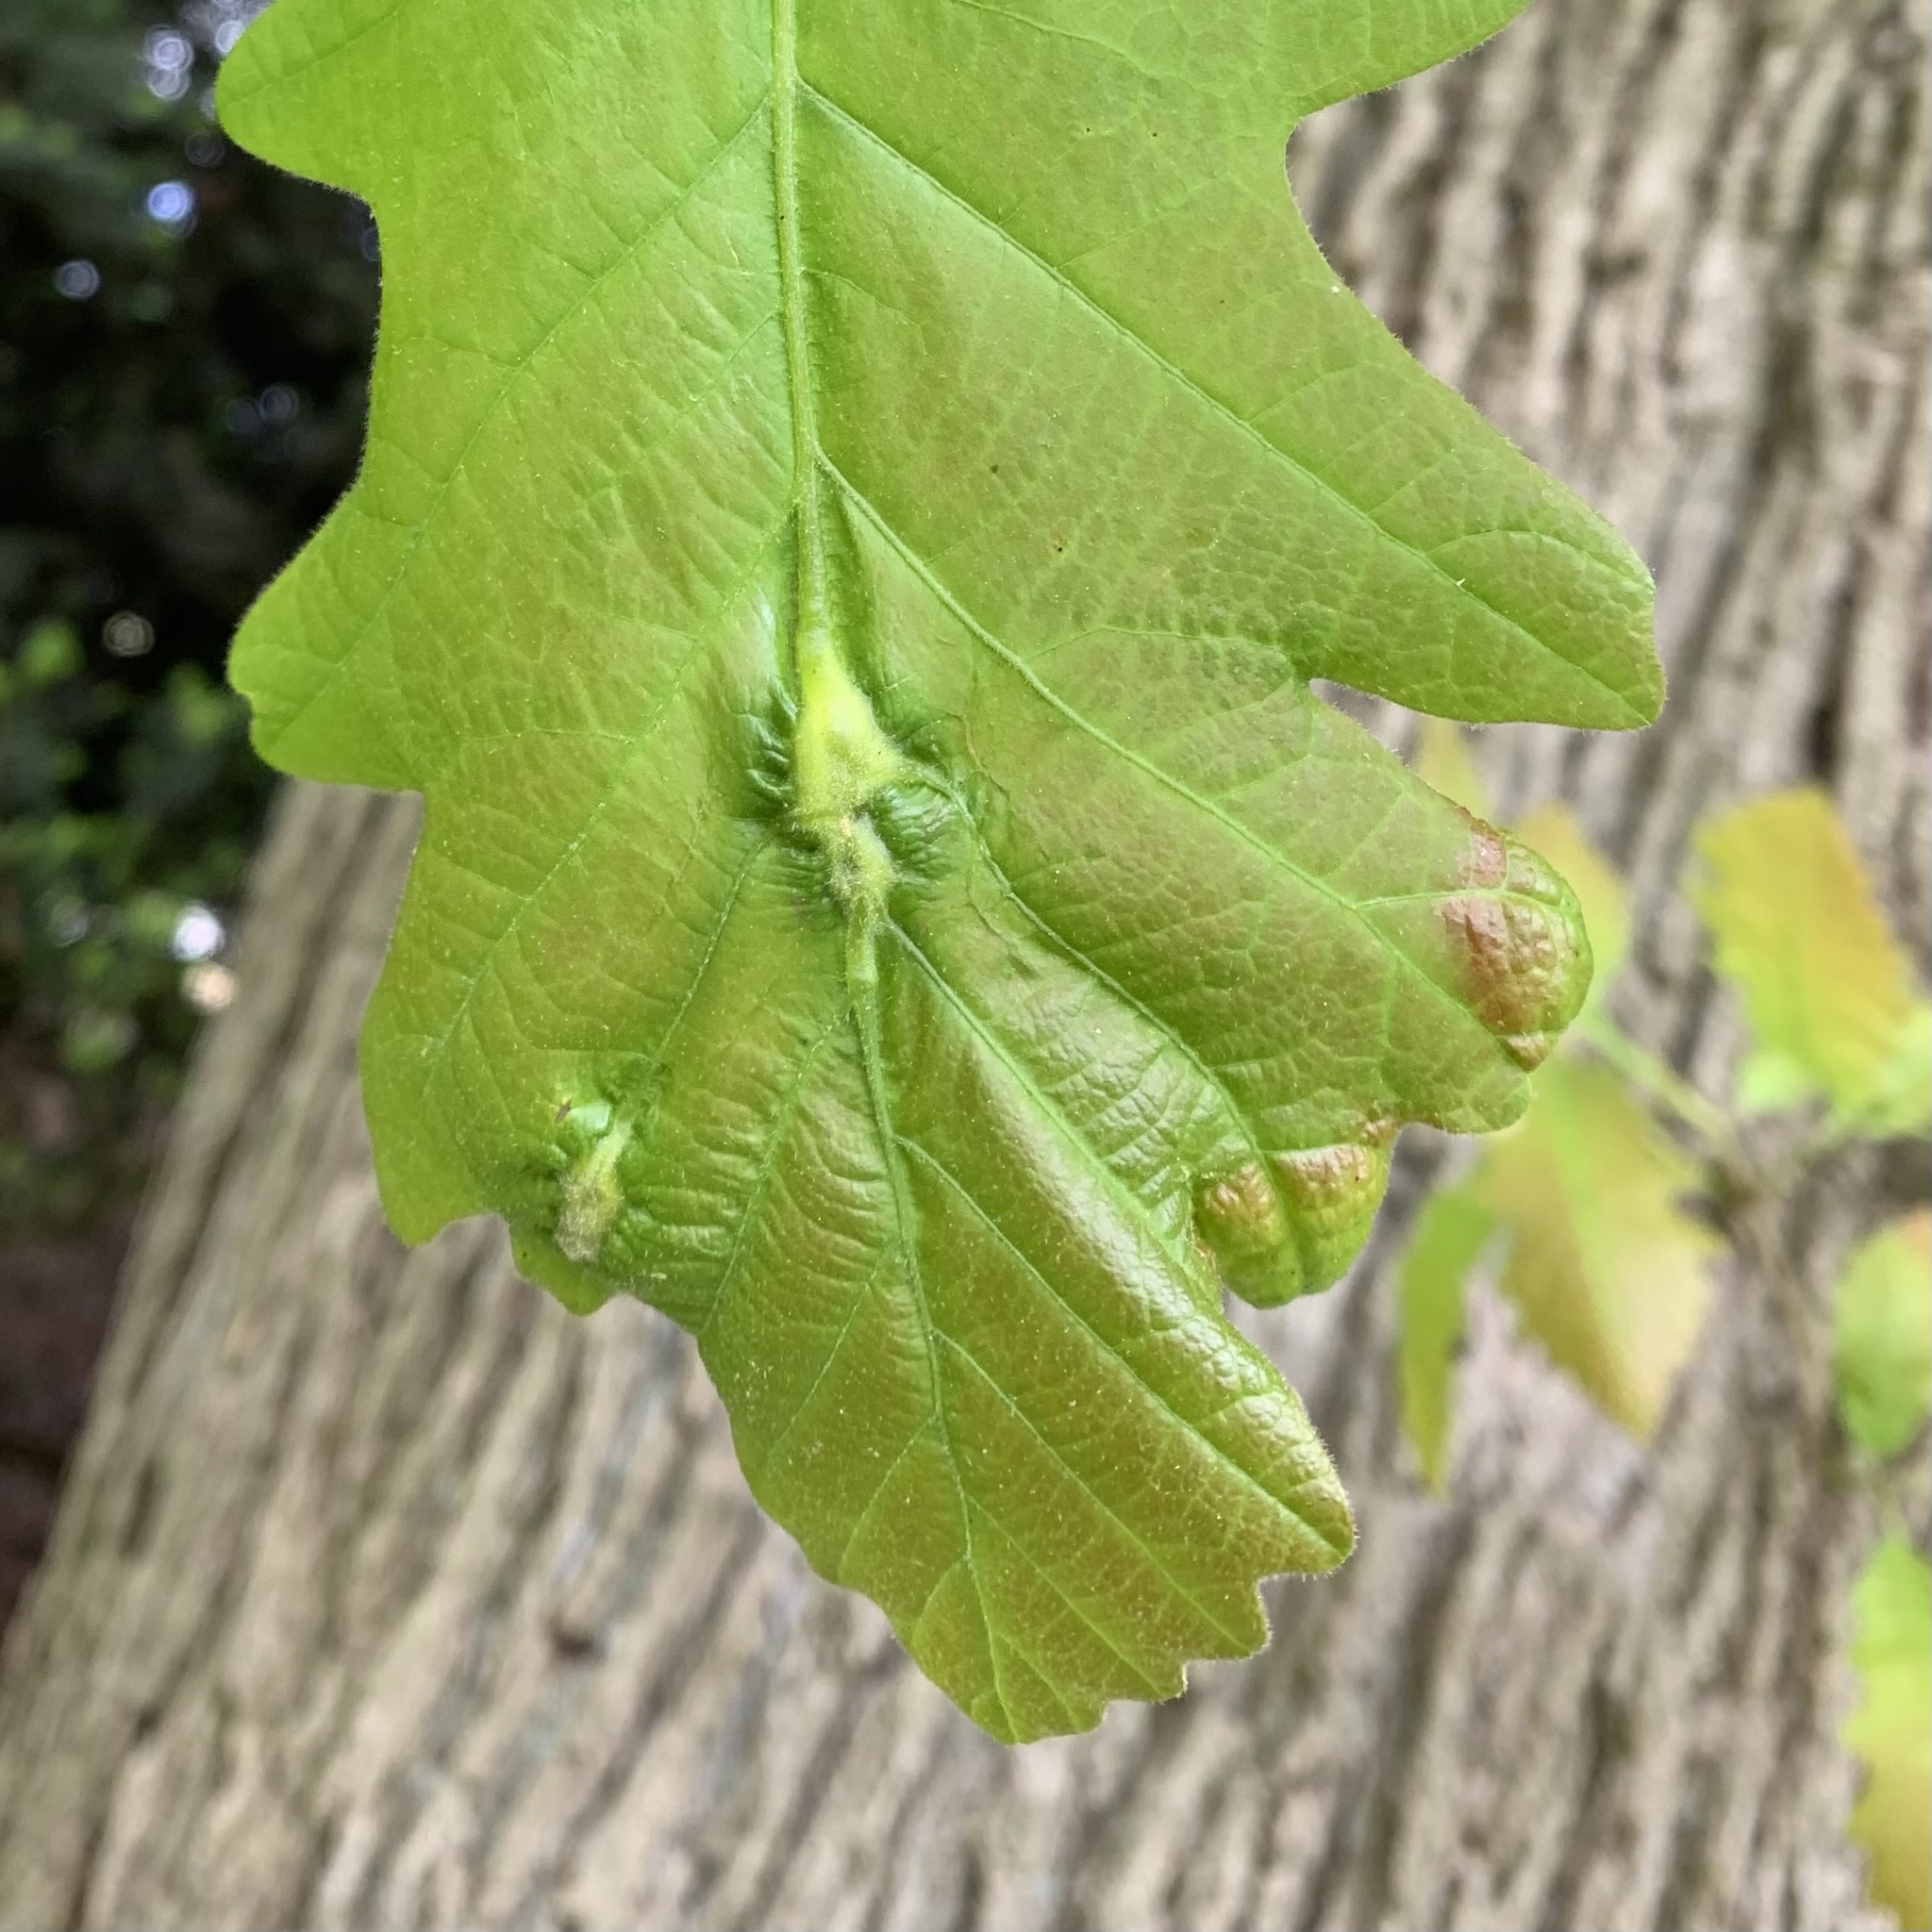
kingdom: Animalia
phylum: Arthropoda
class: Insecta
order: Hymenoptera
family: Cynipidae
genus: Bassettia
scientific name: Bassettia flavipes
